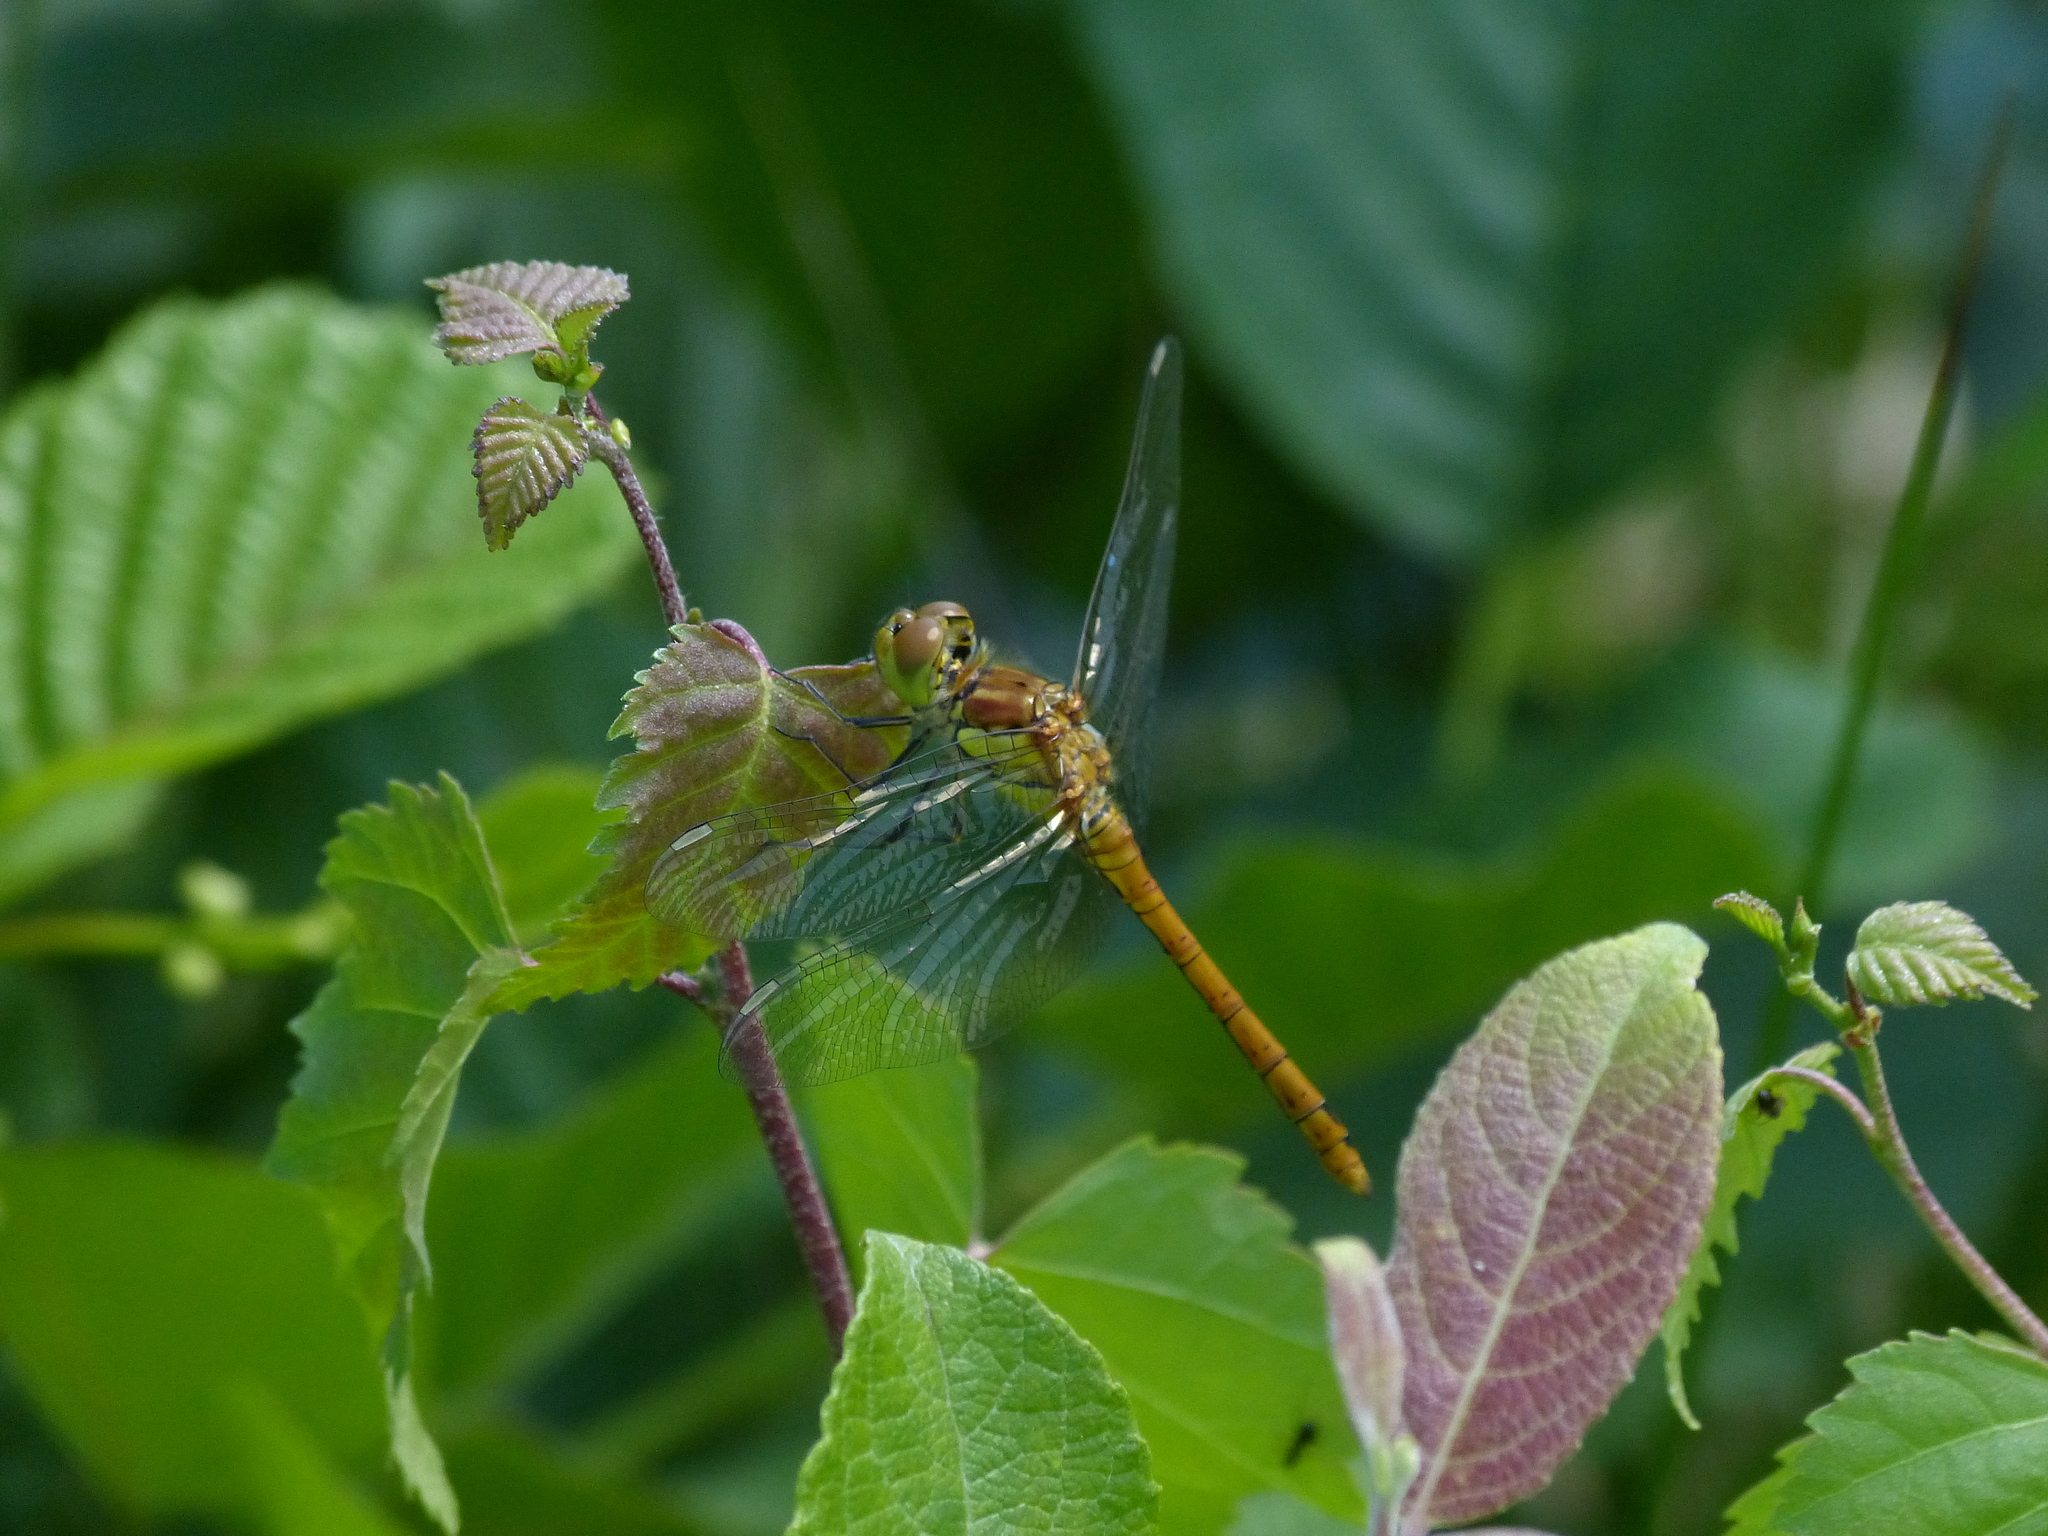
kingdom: Animalia
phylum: Arthropoda
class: Insecta
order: Odonata
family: Libellulidae
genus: Sympetrum
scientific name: Sympetrum striolatum
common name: Common darter
